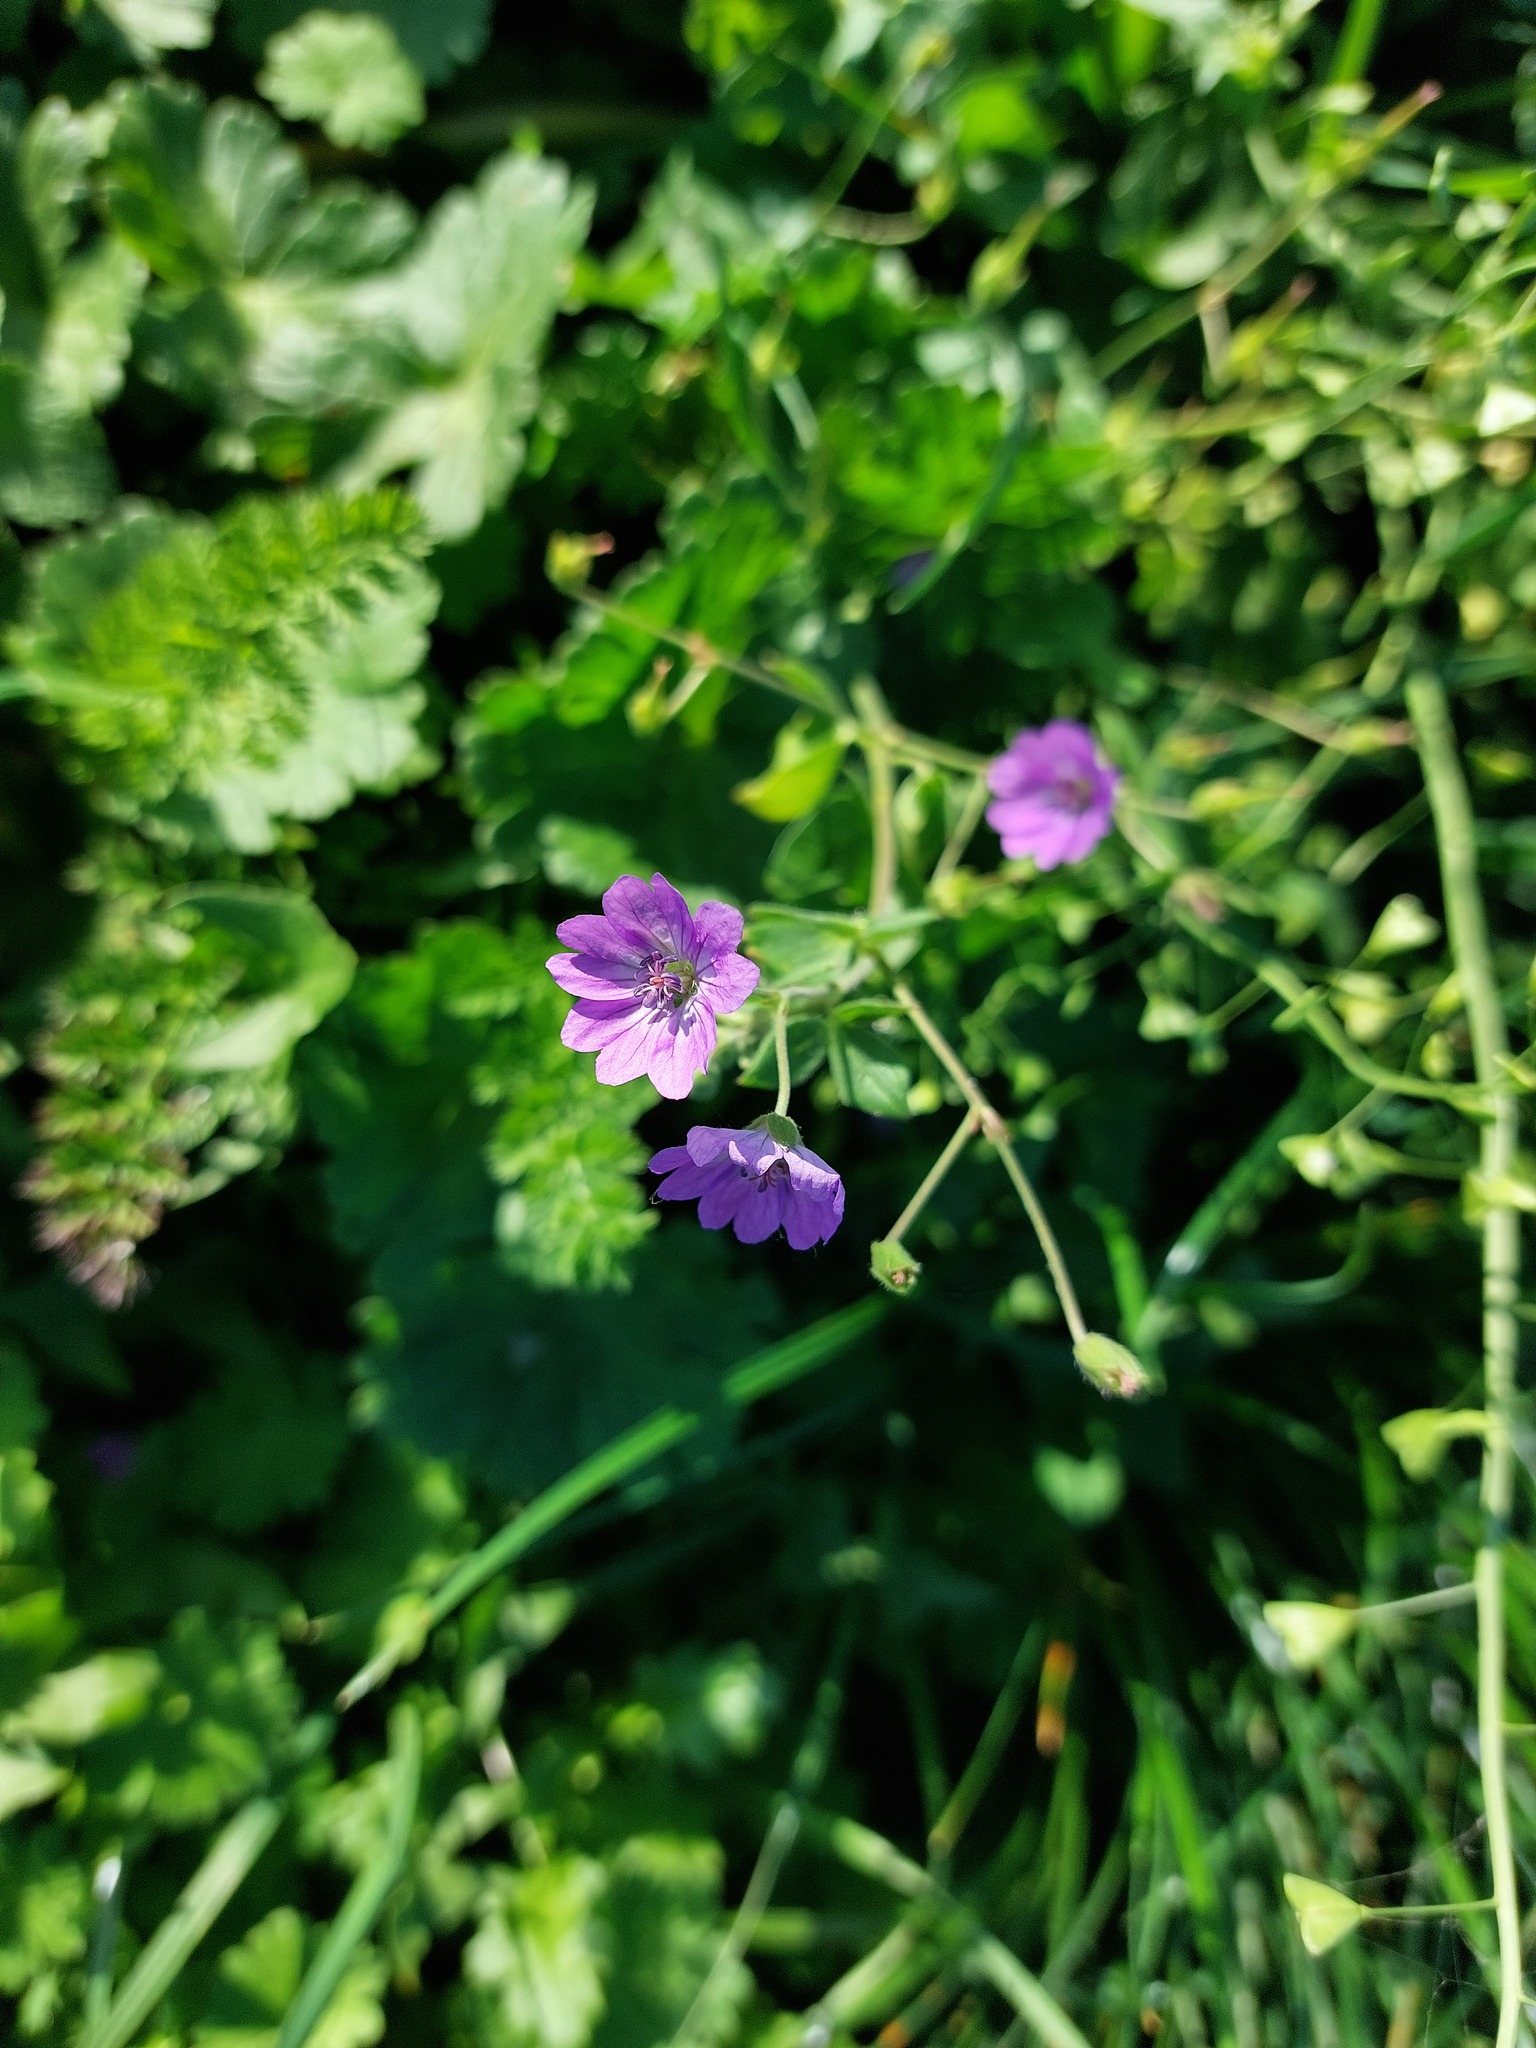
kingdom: Plantae
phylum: Tracheophyta
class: Magnoliopsida
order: Geraniales
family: Geraniaceae
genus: Geranium
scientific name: Geranium pyrenaicum
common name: Hedgerow crane's-bill
